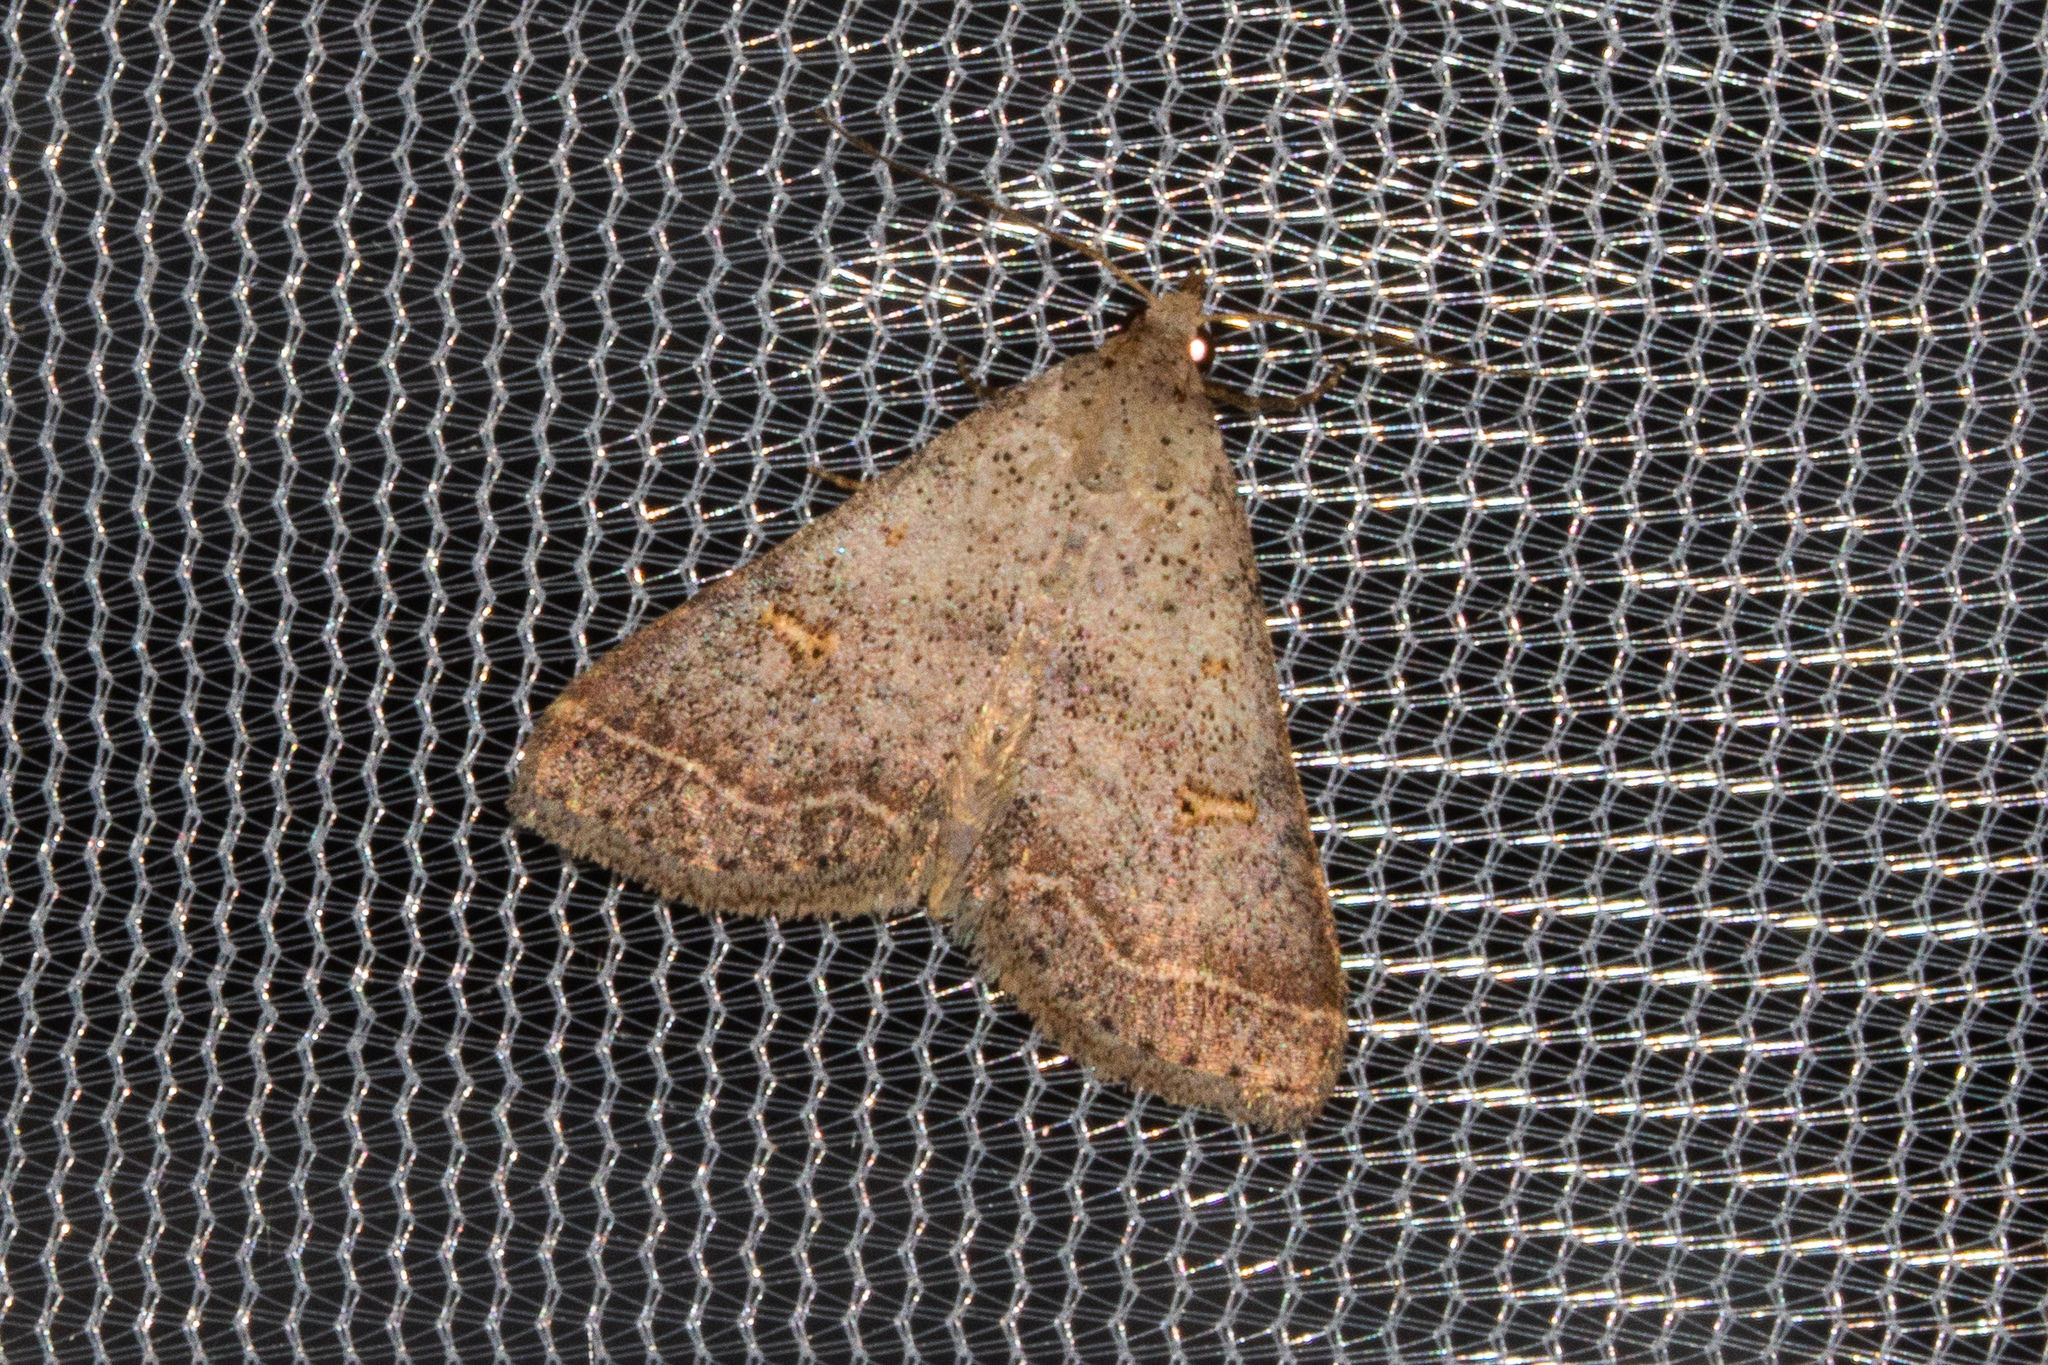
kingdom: Animalia
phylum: Arthropoda
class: Insecta
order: Lepidoptera
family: Erebidae
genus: Bleptina
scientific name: Bleptina caradrinalis
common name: Bent-winged owlet
